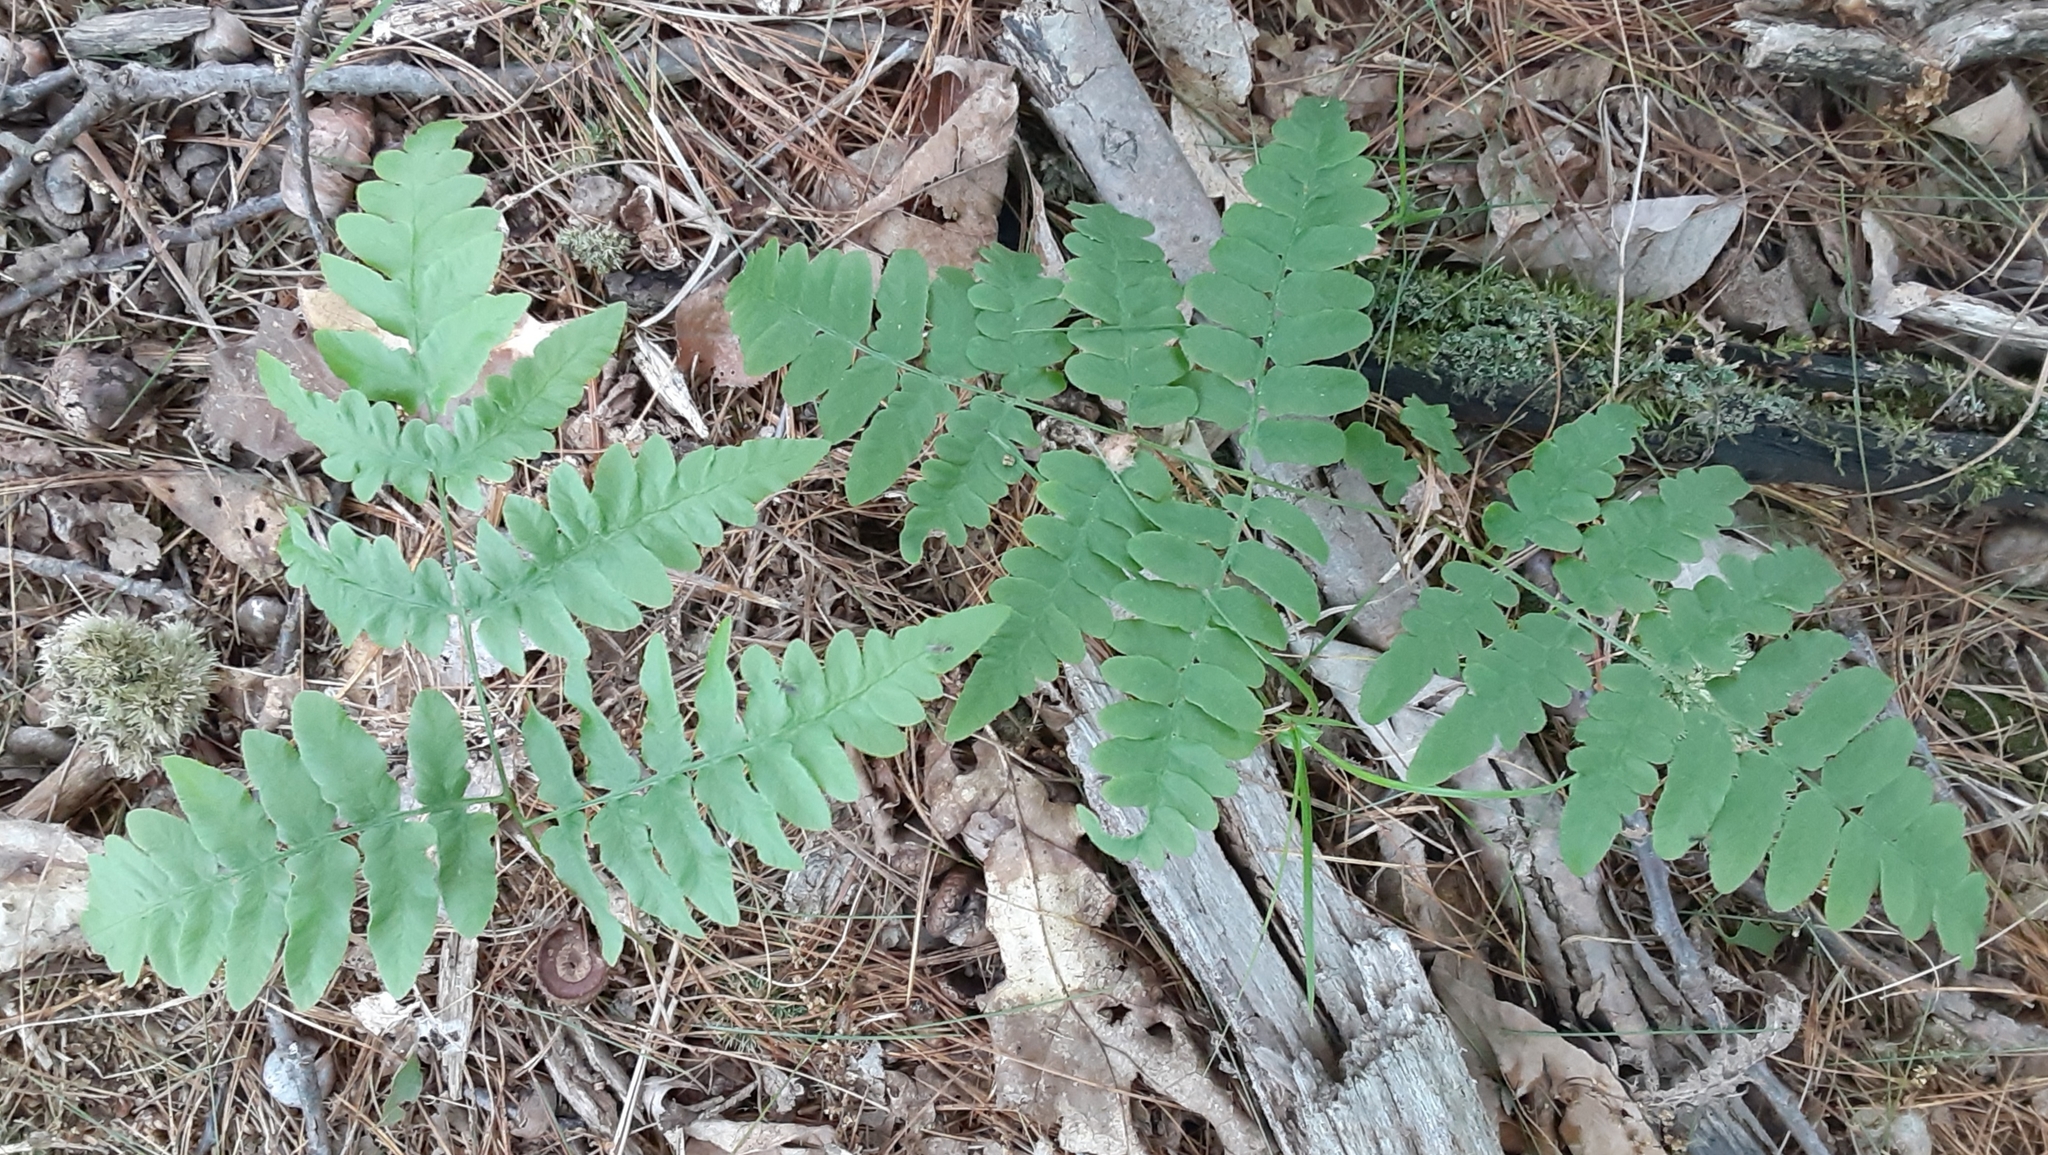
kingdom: Plantae
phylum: Tracheophyta
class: Polypodiopsida
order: Polypodiales
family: Dennstaedtiaceae
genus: Pteridium
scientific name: Pteridium aquilinum
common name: Bracken
